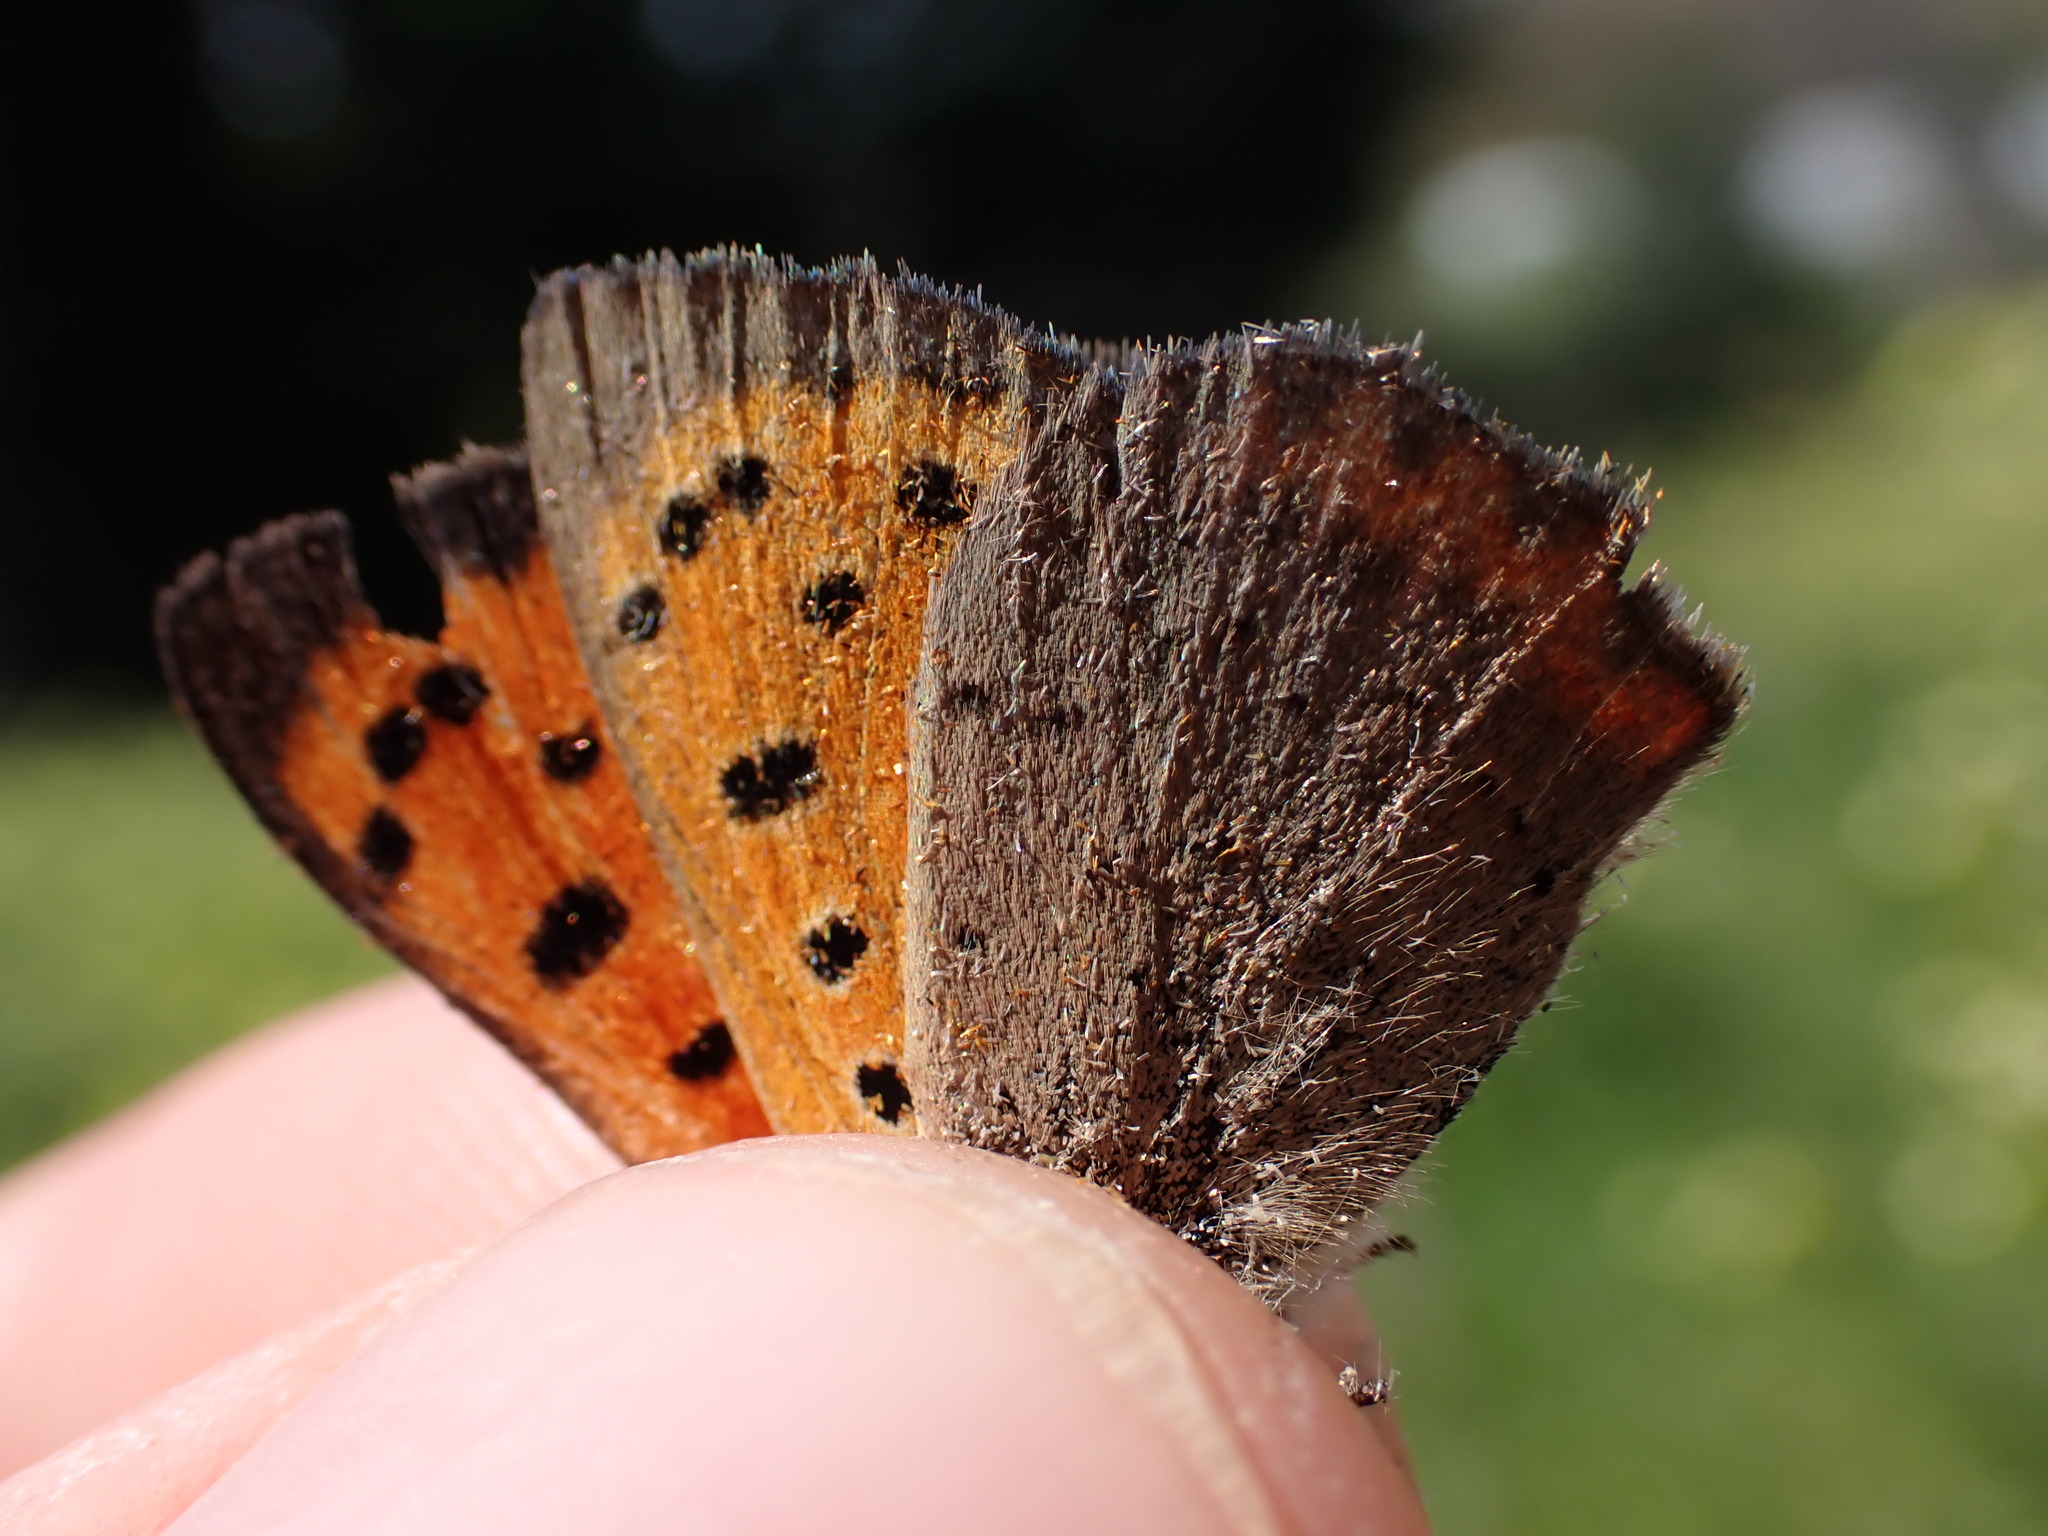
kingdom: Animalia
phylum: Arthropoda
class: Insecta
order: Lepidoptera
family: Lycaenidae
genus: Lycaena
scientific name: Lycaena phlaeas
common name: Small copper
